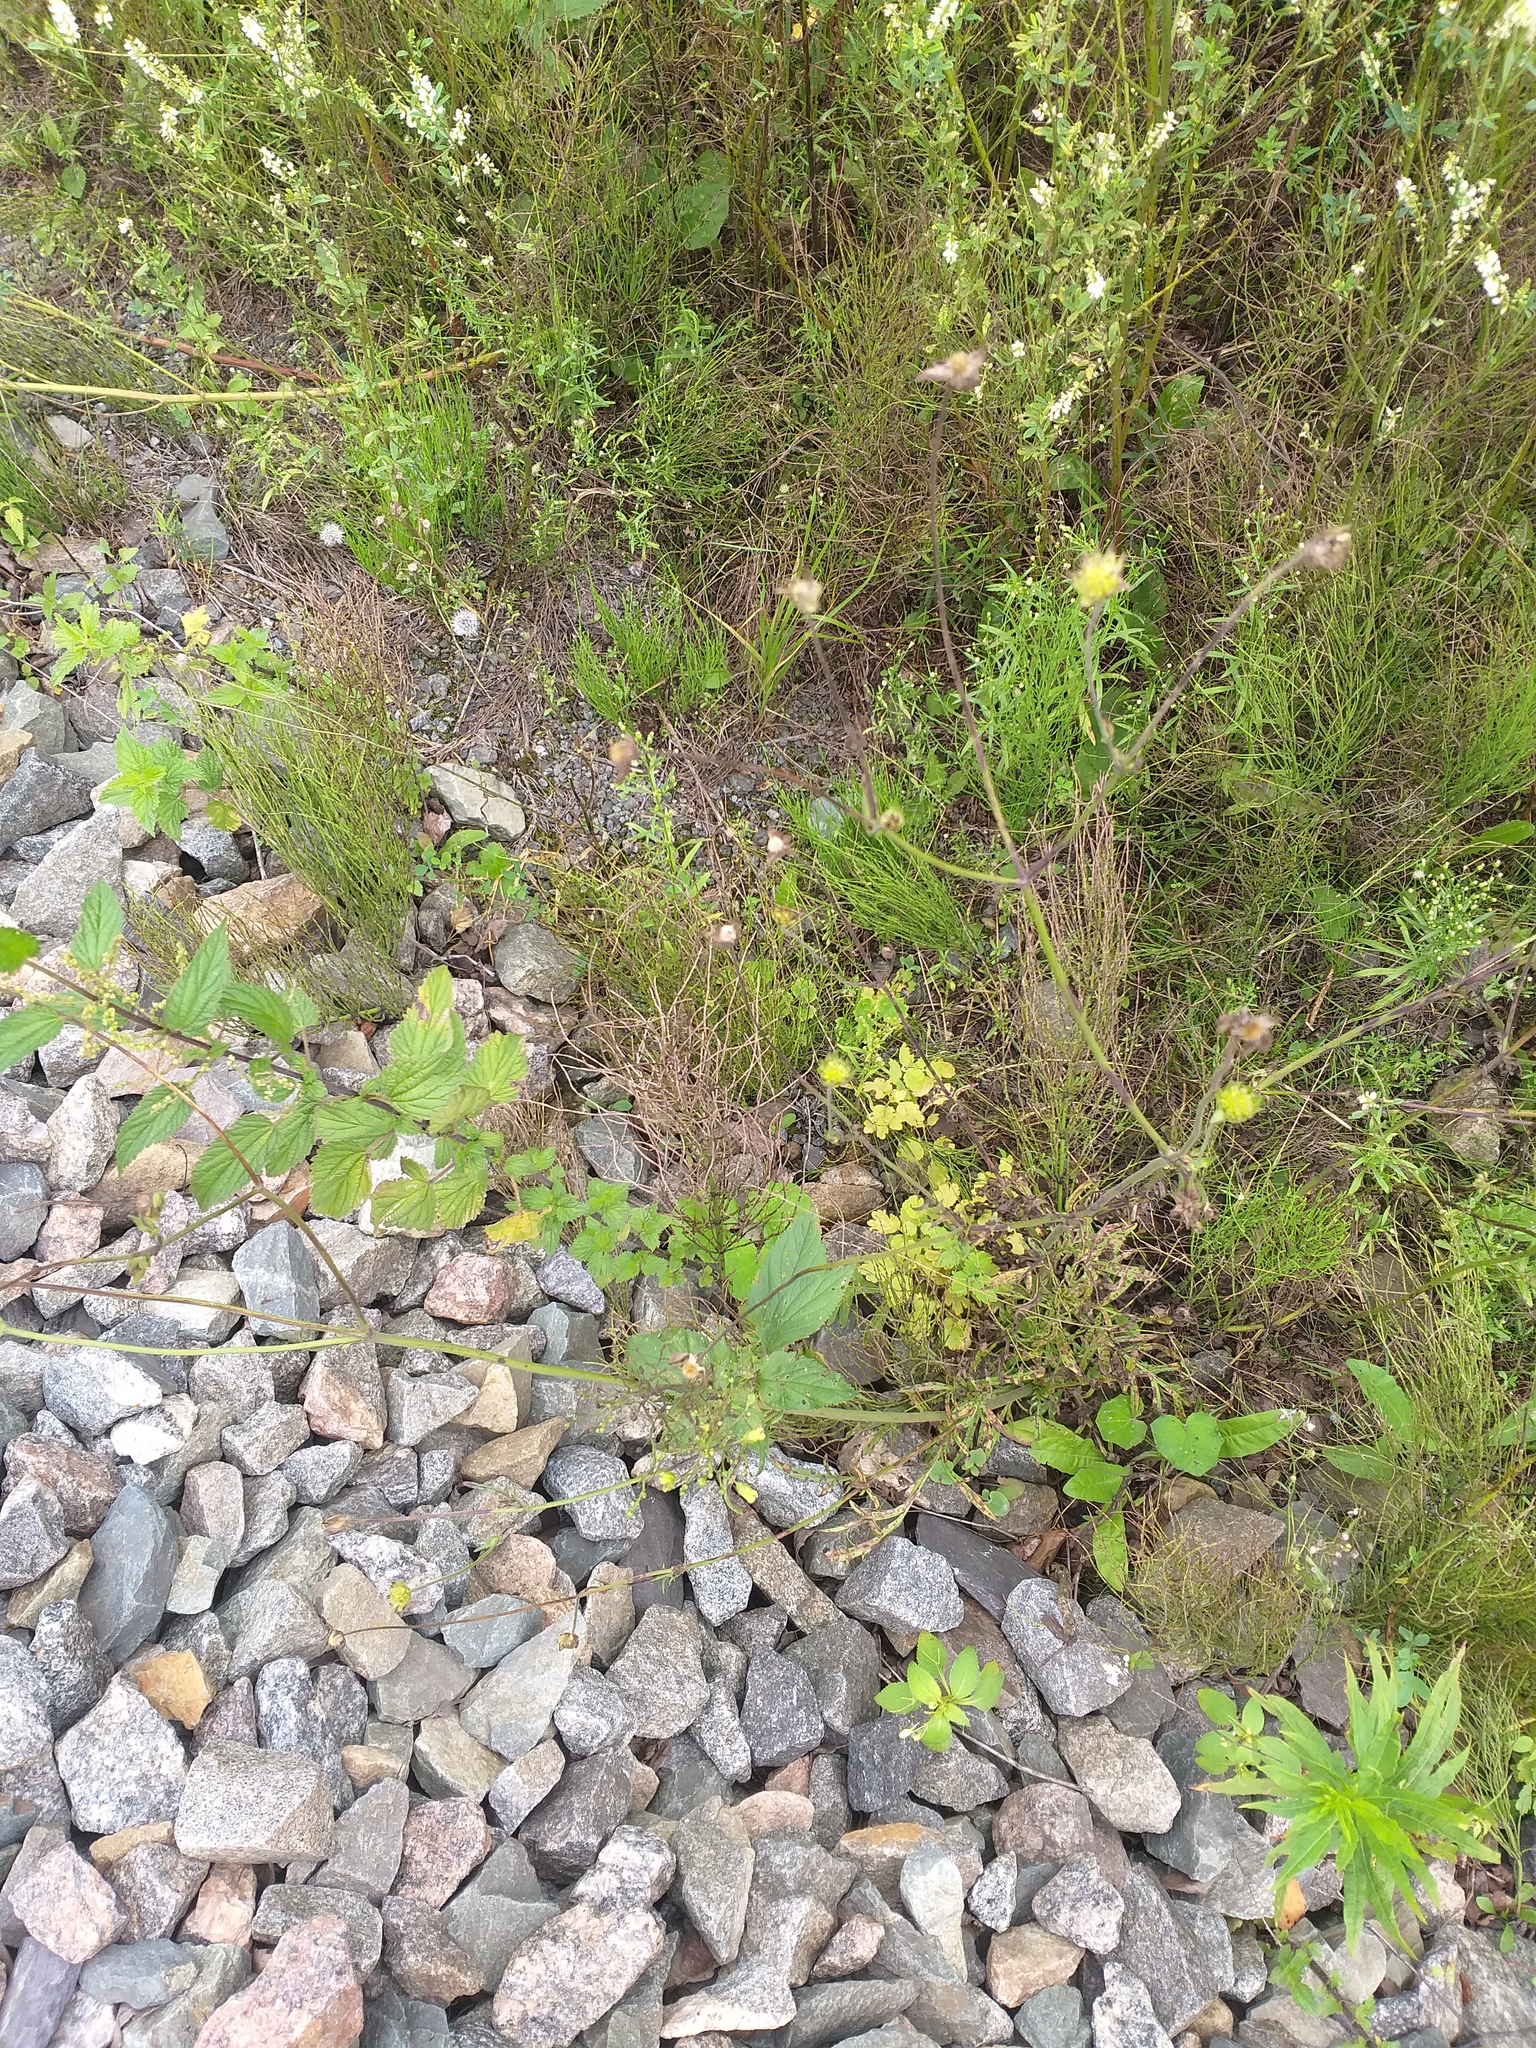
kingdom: Plantae
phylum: Tracheophyta
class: Magnoliopsida
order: Dipsacales
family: Caprifoliaceae
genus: Knautia
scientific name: Knautia arvensis
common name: Field scabiosa
